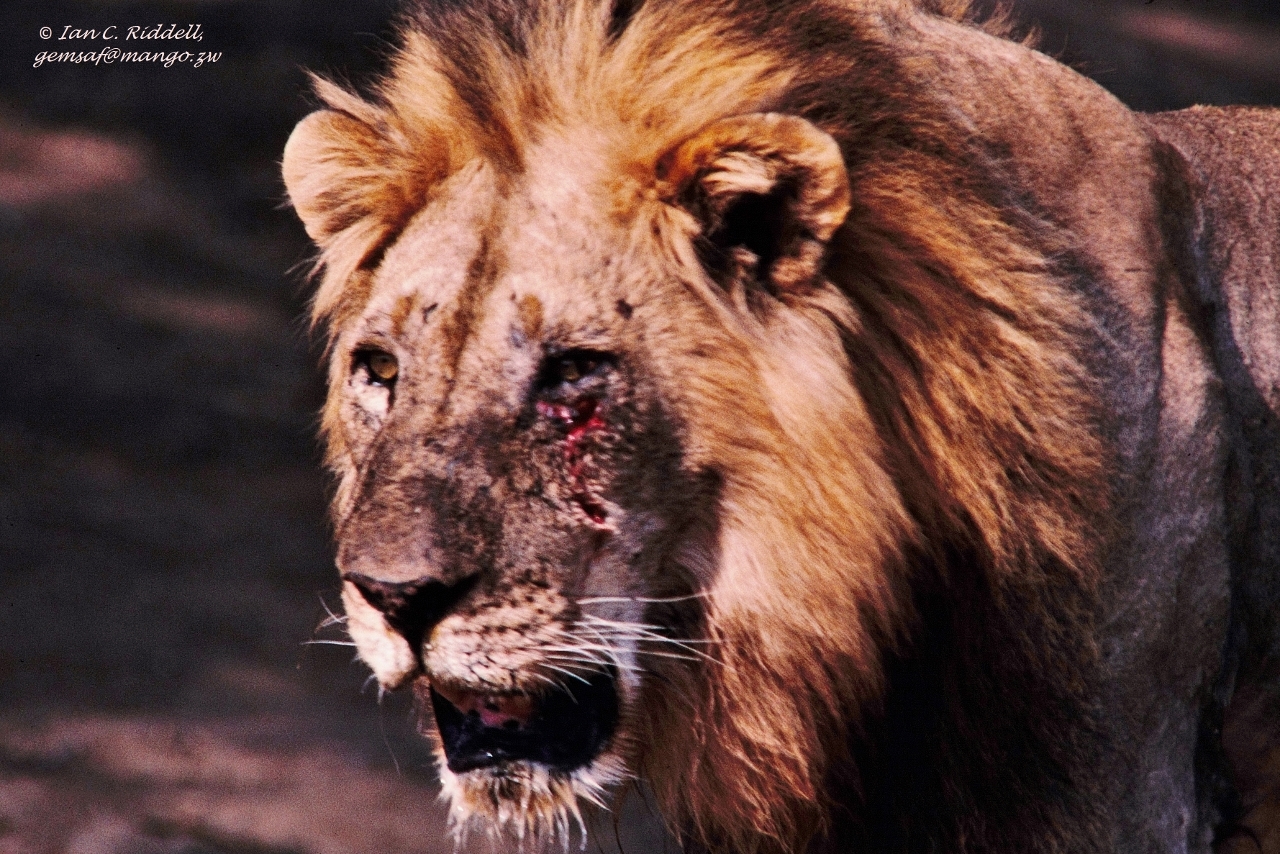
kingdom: Animalia
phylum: Chordata
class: Mammalia
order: Carnivora
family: Felidae
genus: Panthera
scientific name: Panthera leo
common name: Lion
